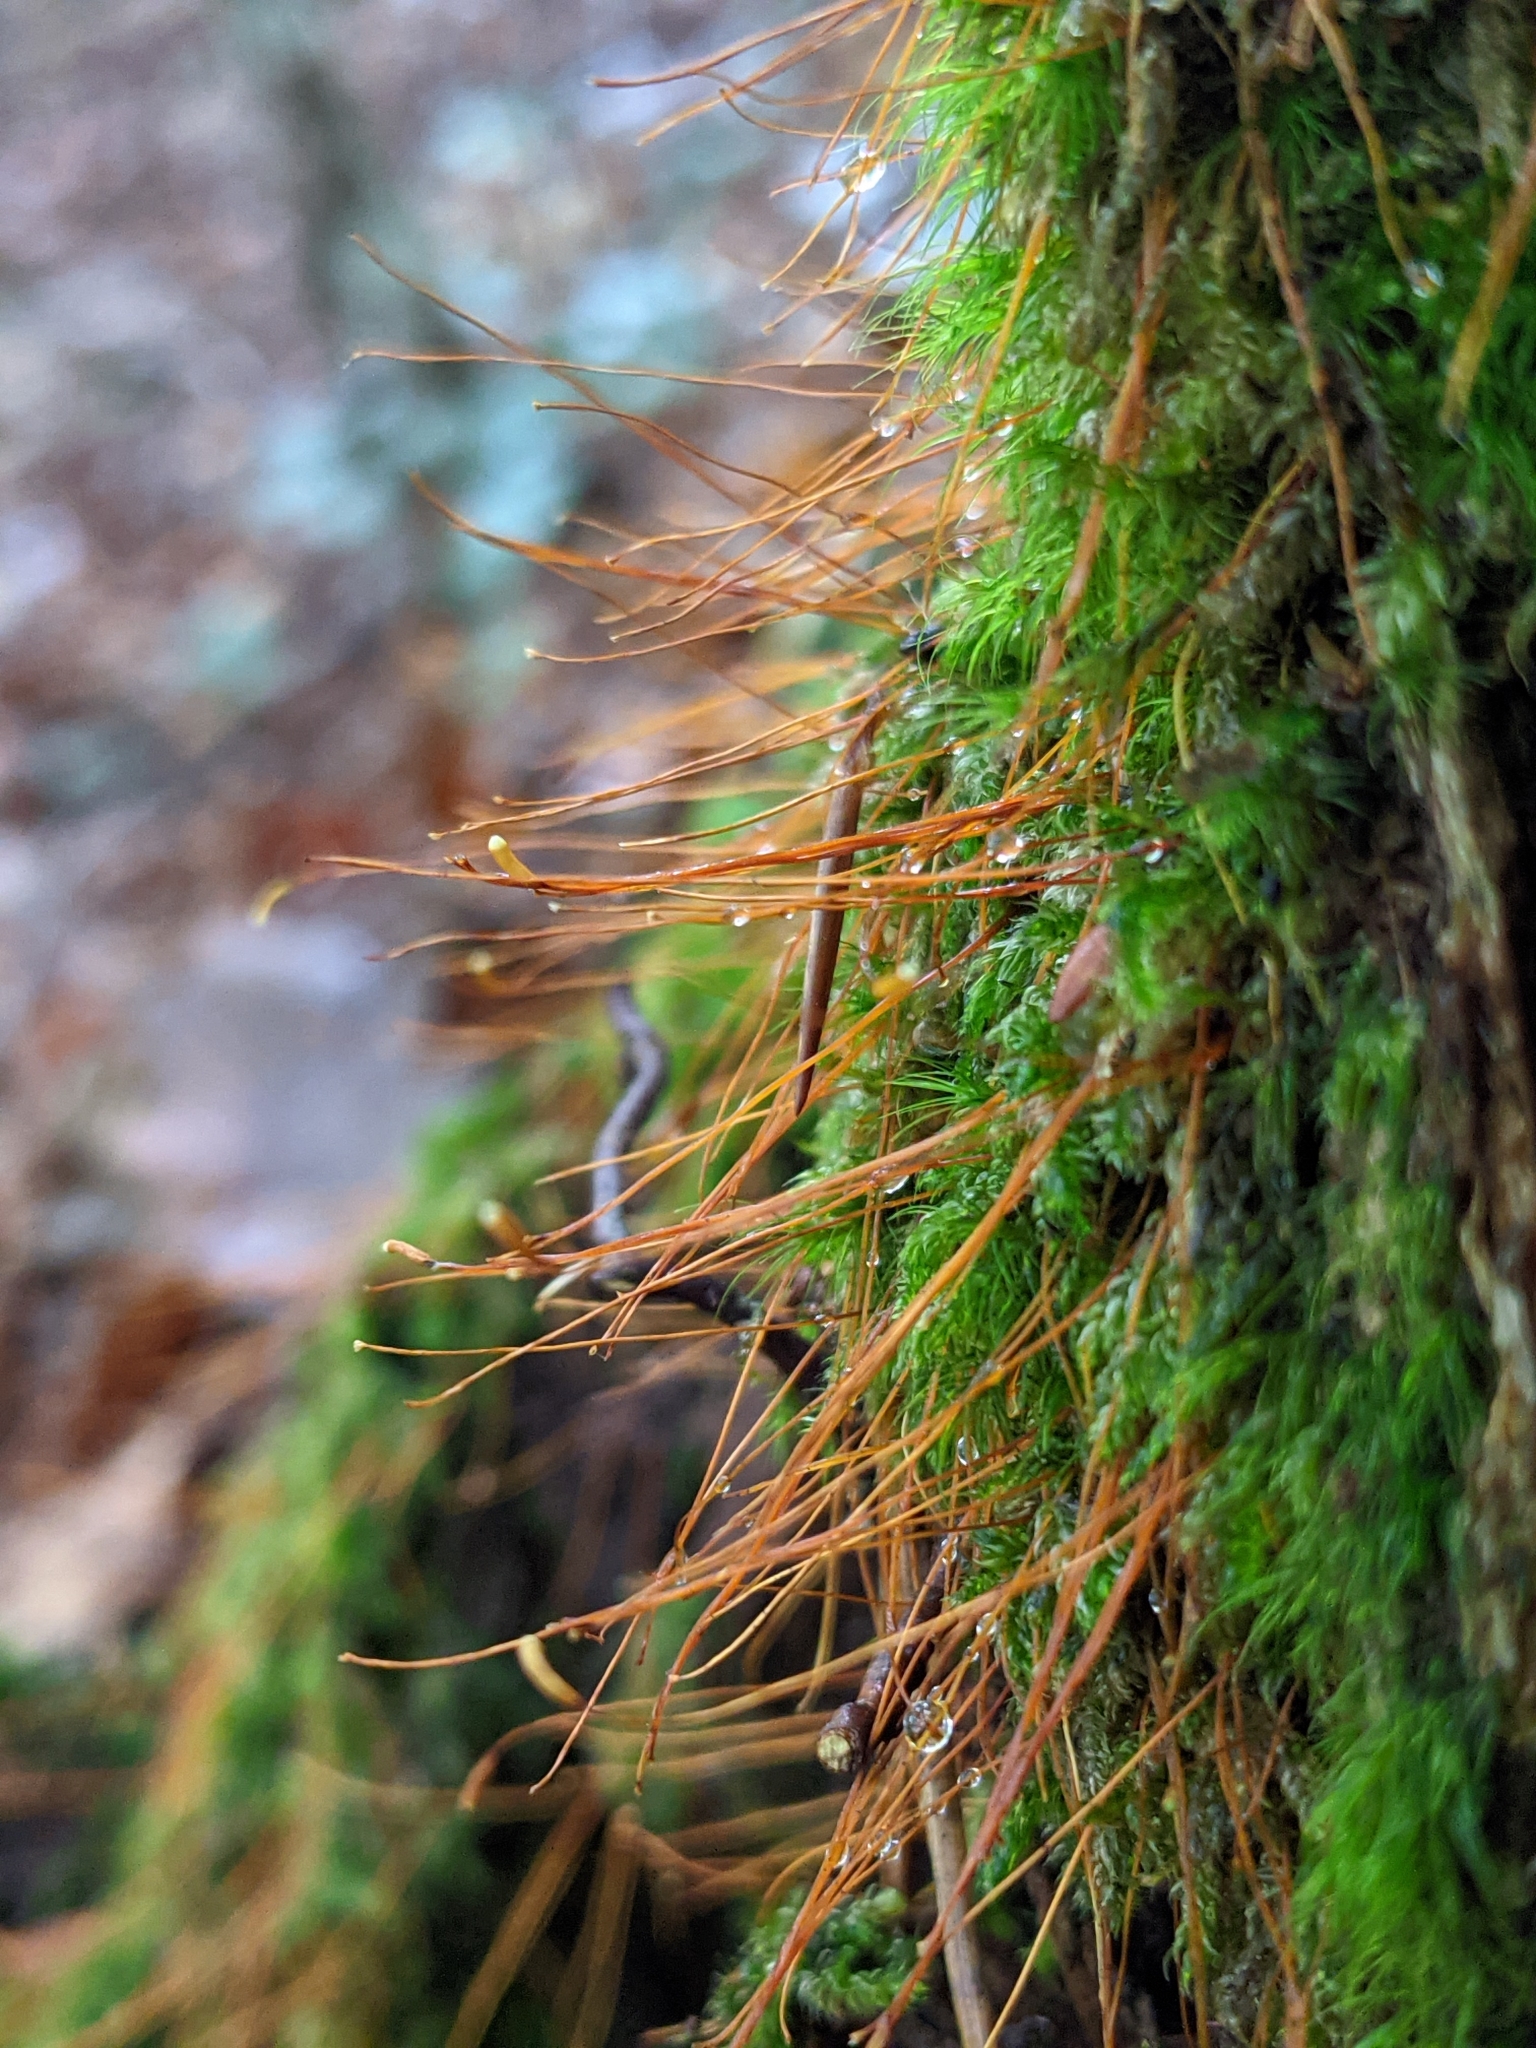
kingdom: Plantae
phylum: Bryophyta
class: Bryopsida
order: Hypnales
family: Plagiotheciaceae
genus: Herzogiella
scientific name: Herzogiella seligeri
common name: Silesian feather-moss
